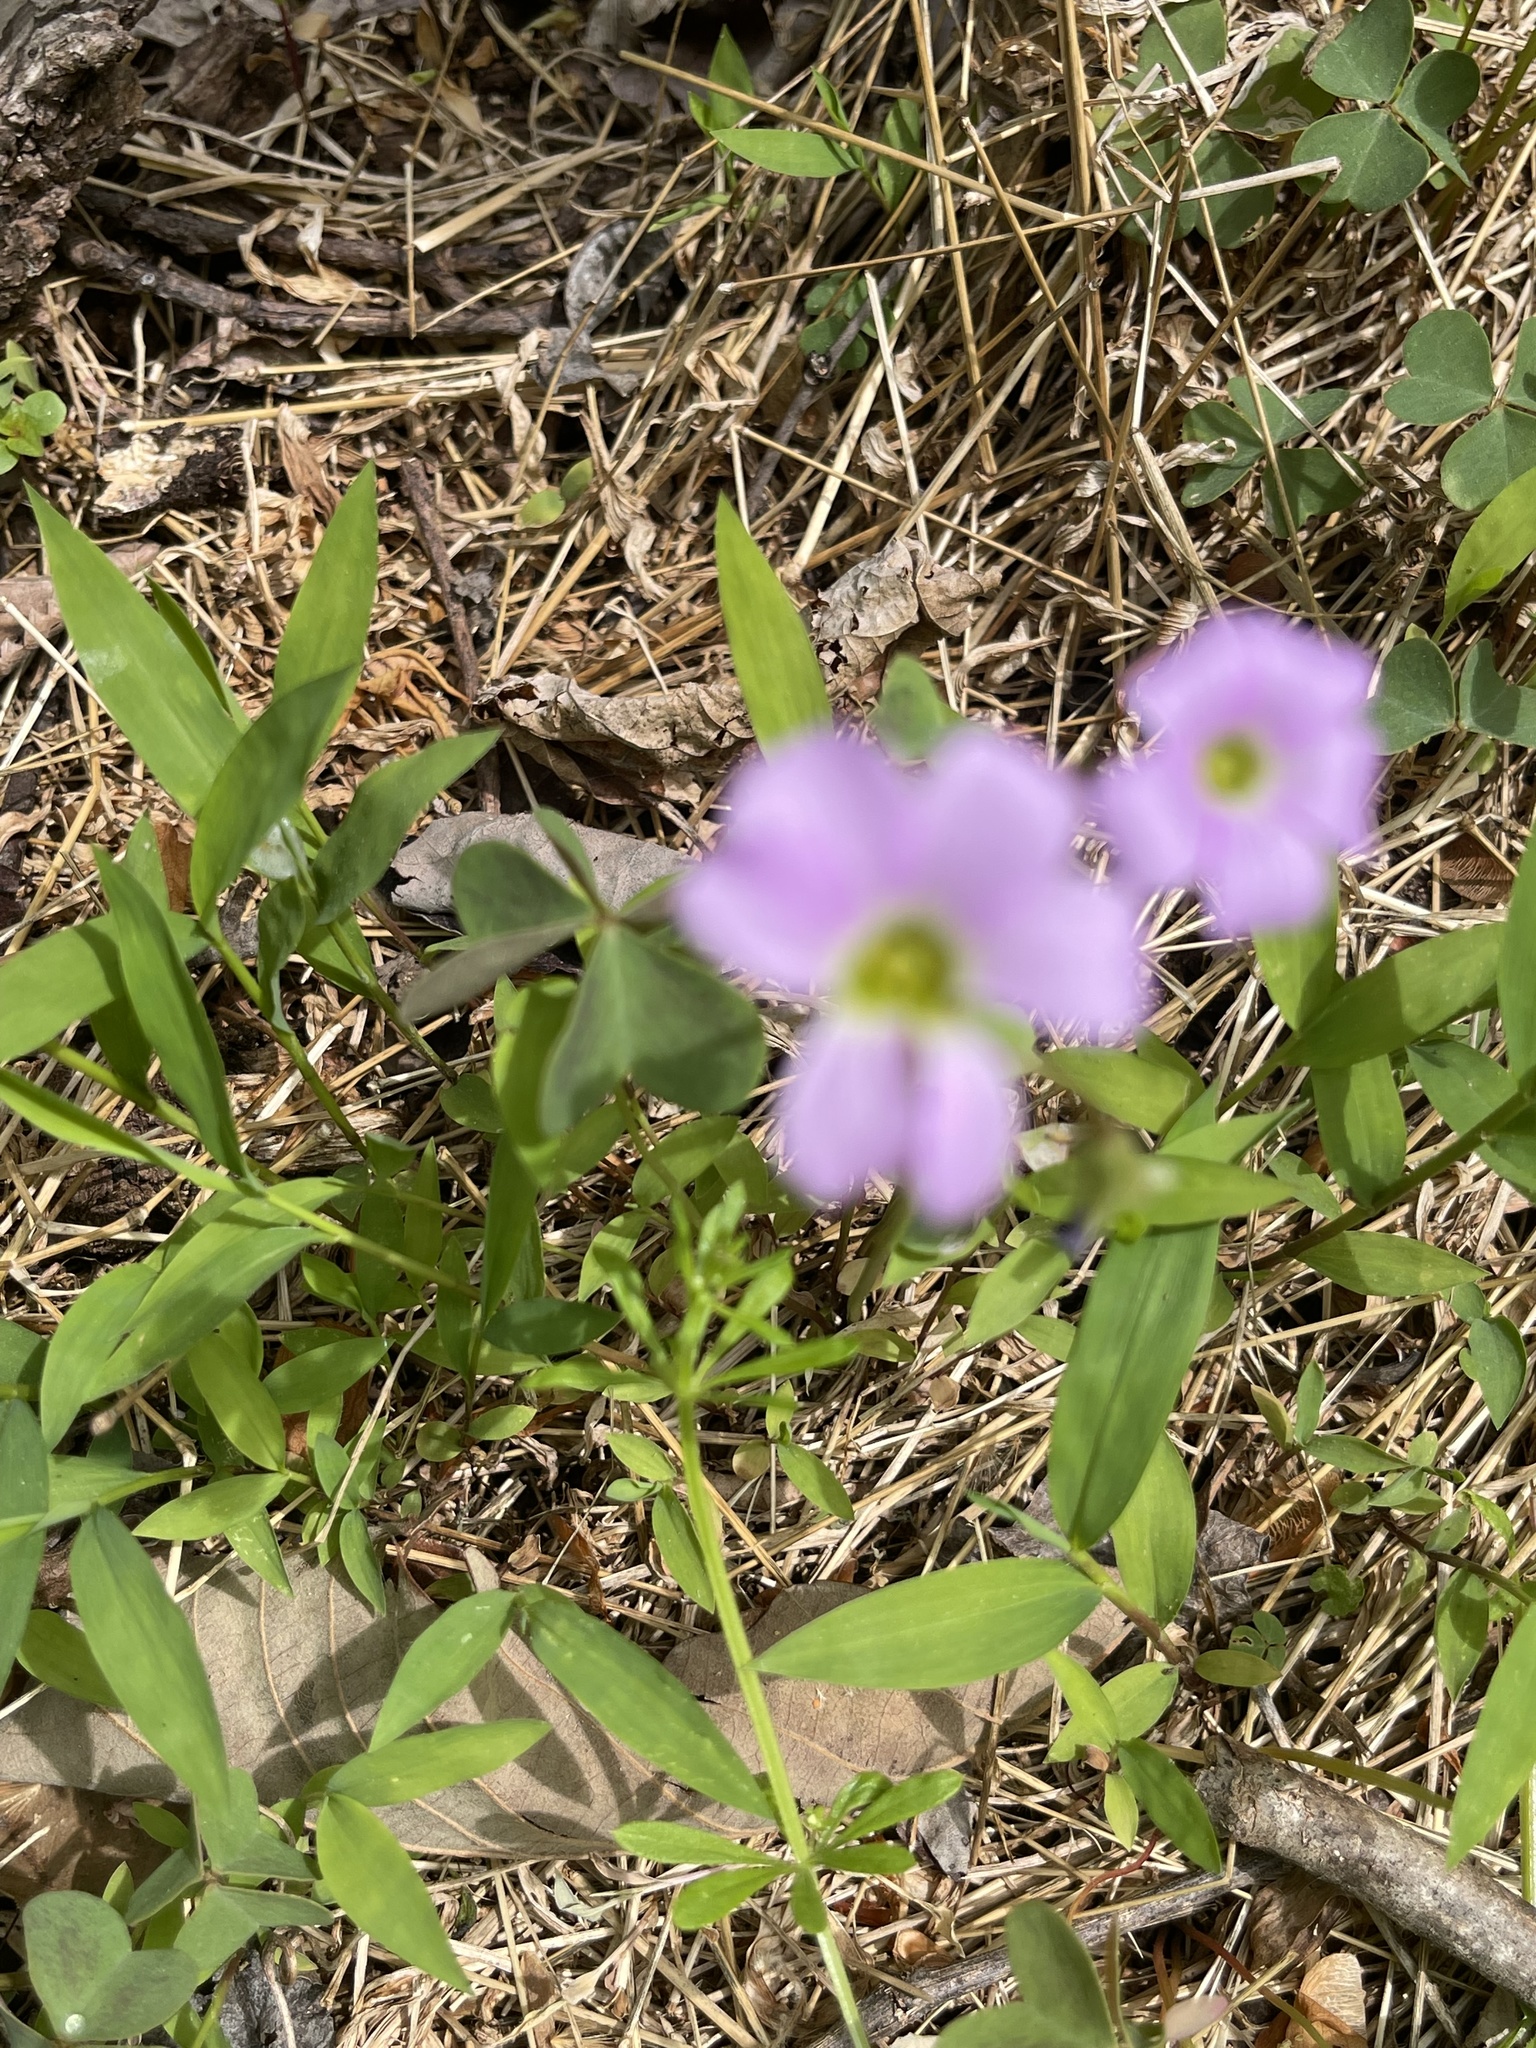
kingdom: Plantae
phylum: Tracheophyta
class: Magnoliopsida
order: Oxalidales
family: Oxalidaceae
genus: Oxalis
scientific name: Oxalis violacea
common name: Violet wood-sorrel
